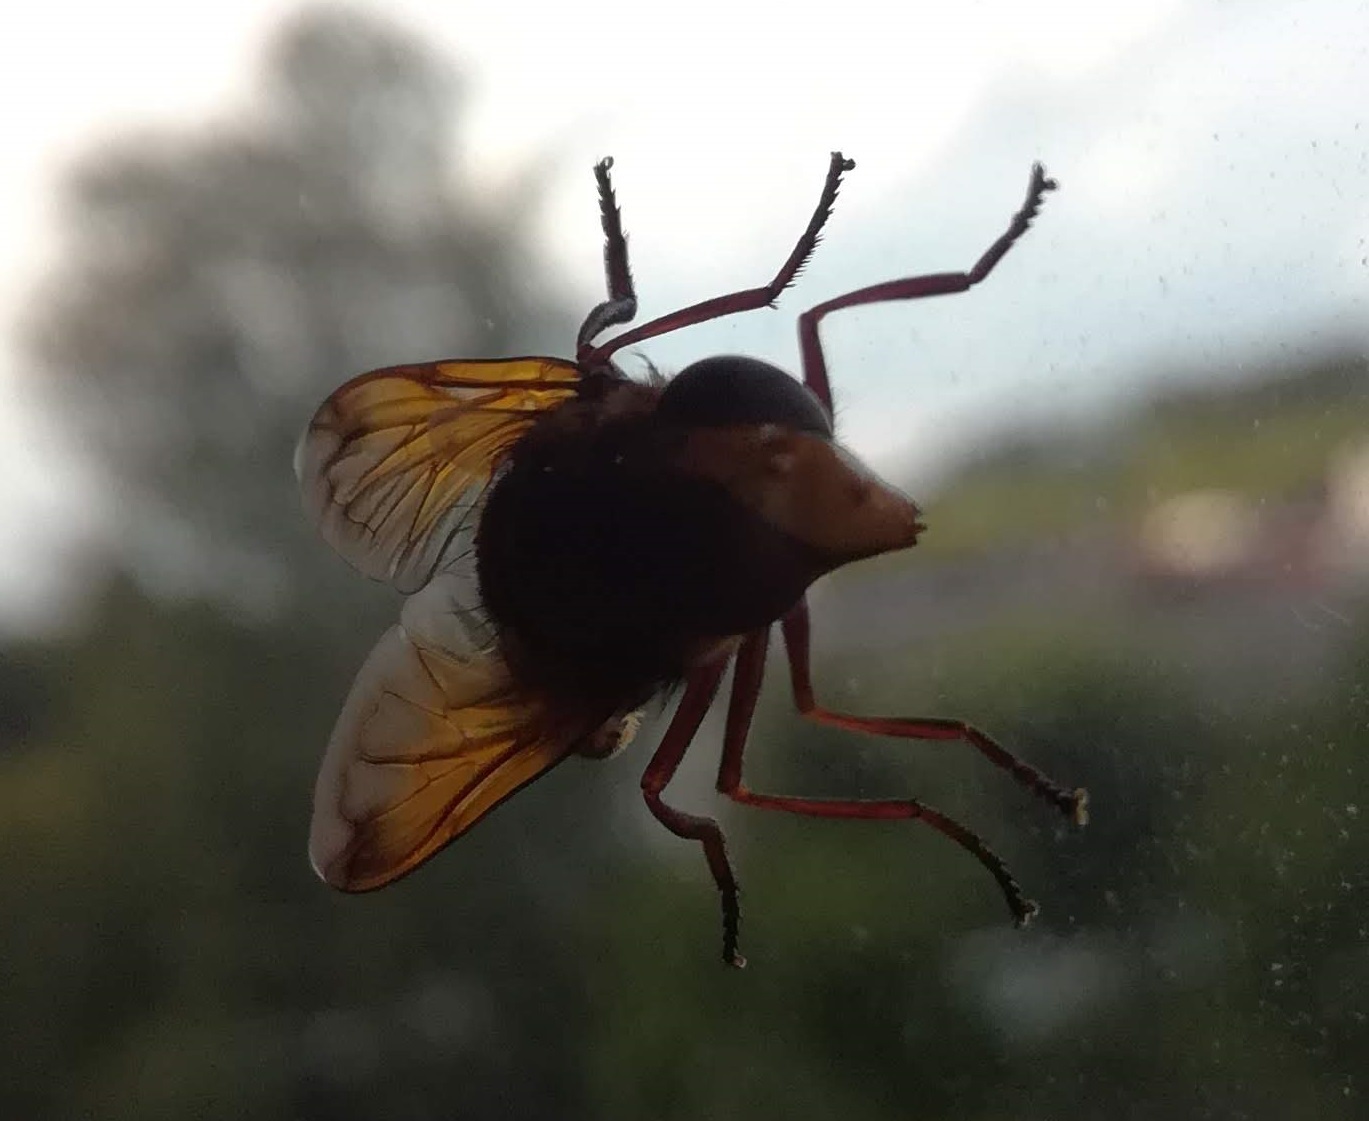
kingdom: Animalia
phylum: Arthropoda
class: Insecta
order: Diptera
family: Syrphidae
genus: Volucella
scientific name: Volucella zonaria
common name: Hornet hoverfly
